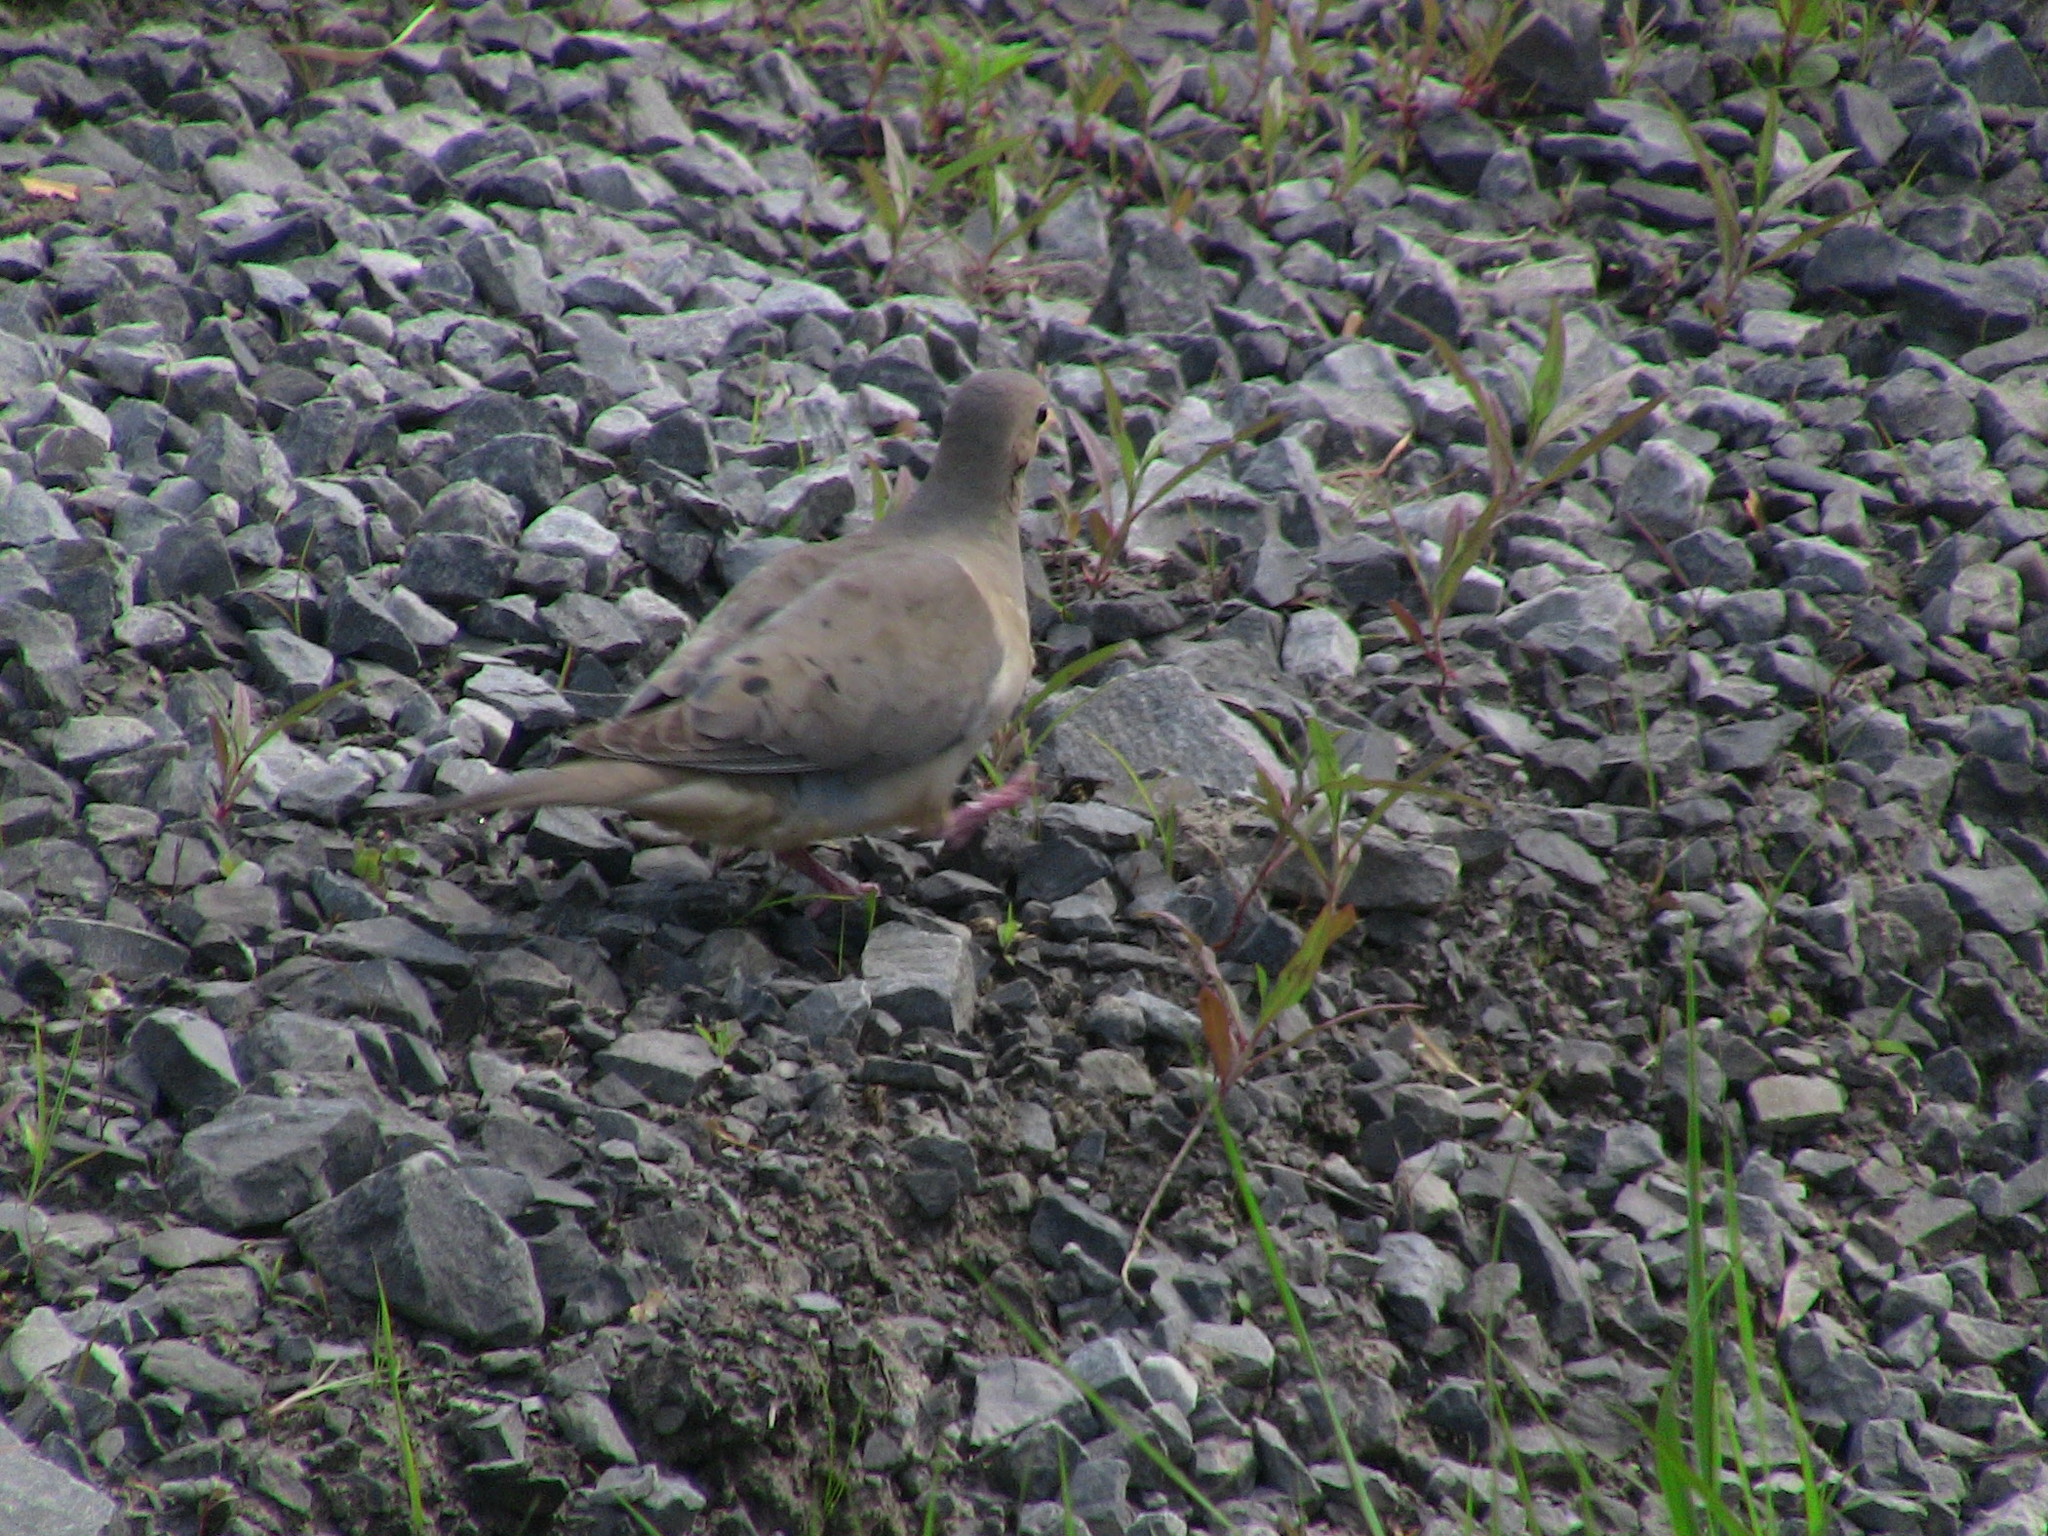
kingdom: Animalia
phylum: Chordata
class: Aves
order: Columbiformes
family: Columbidae
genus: Zenaida
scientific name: Zenaida macroura
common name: Mourning dove
